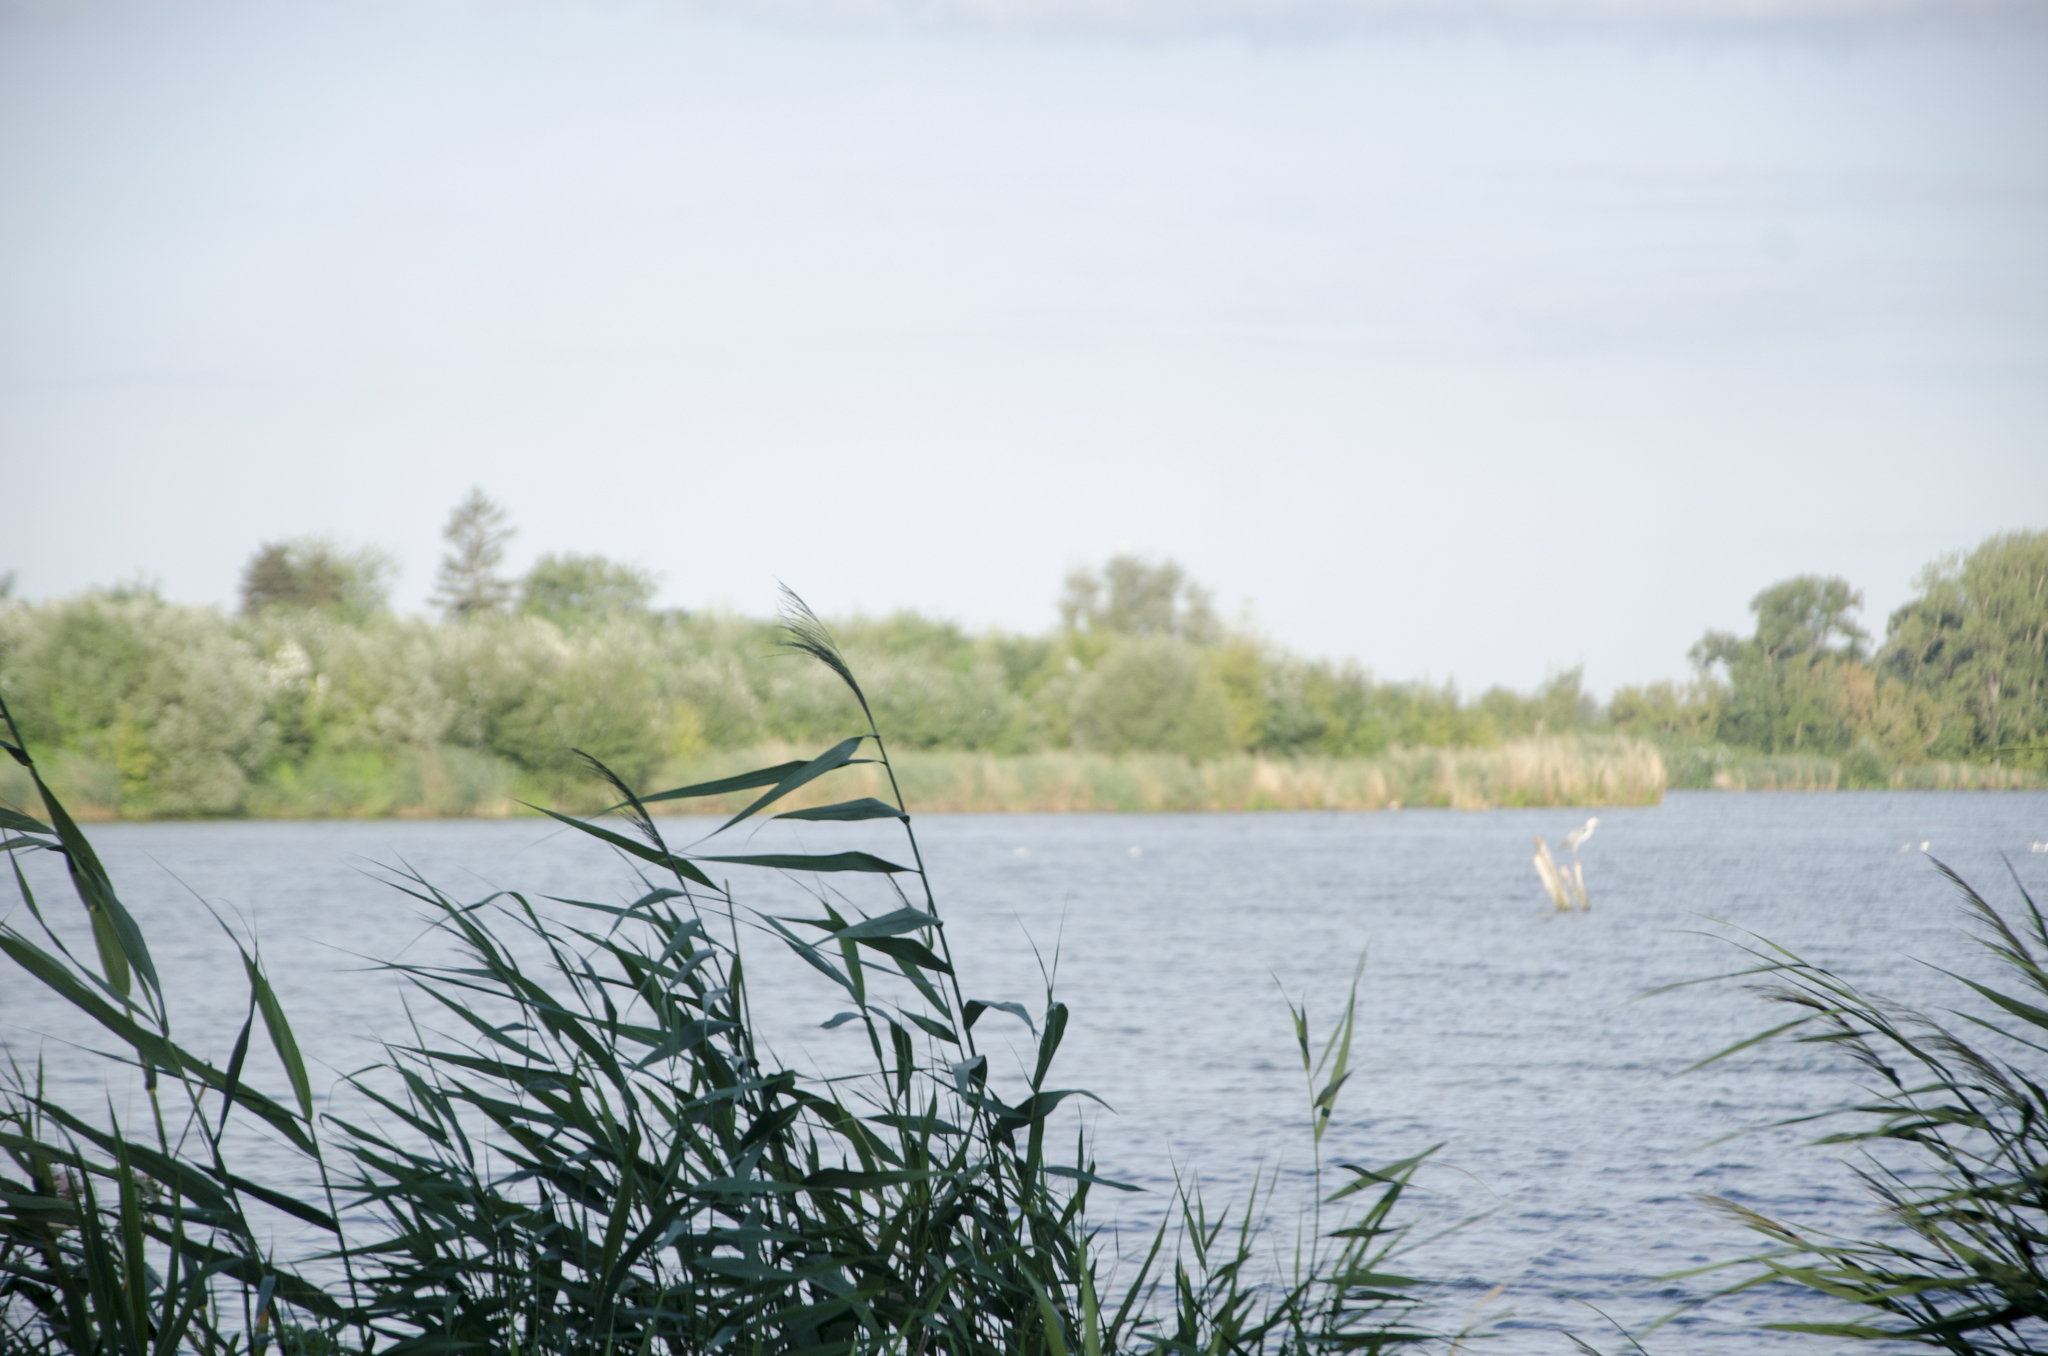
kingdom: Plantae
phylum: Tracheophyta
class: Liliopsida
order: Poales
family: Poaceae
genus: Phragmites
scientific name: Phragmites australis
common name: Common reed
